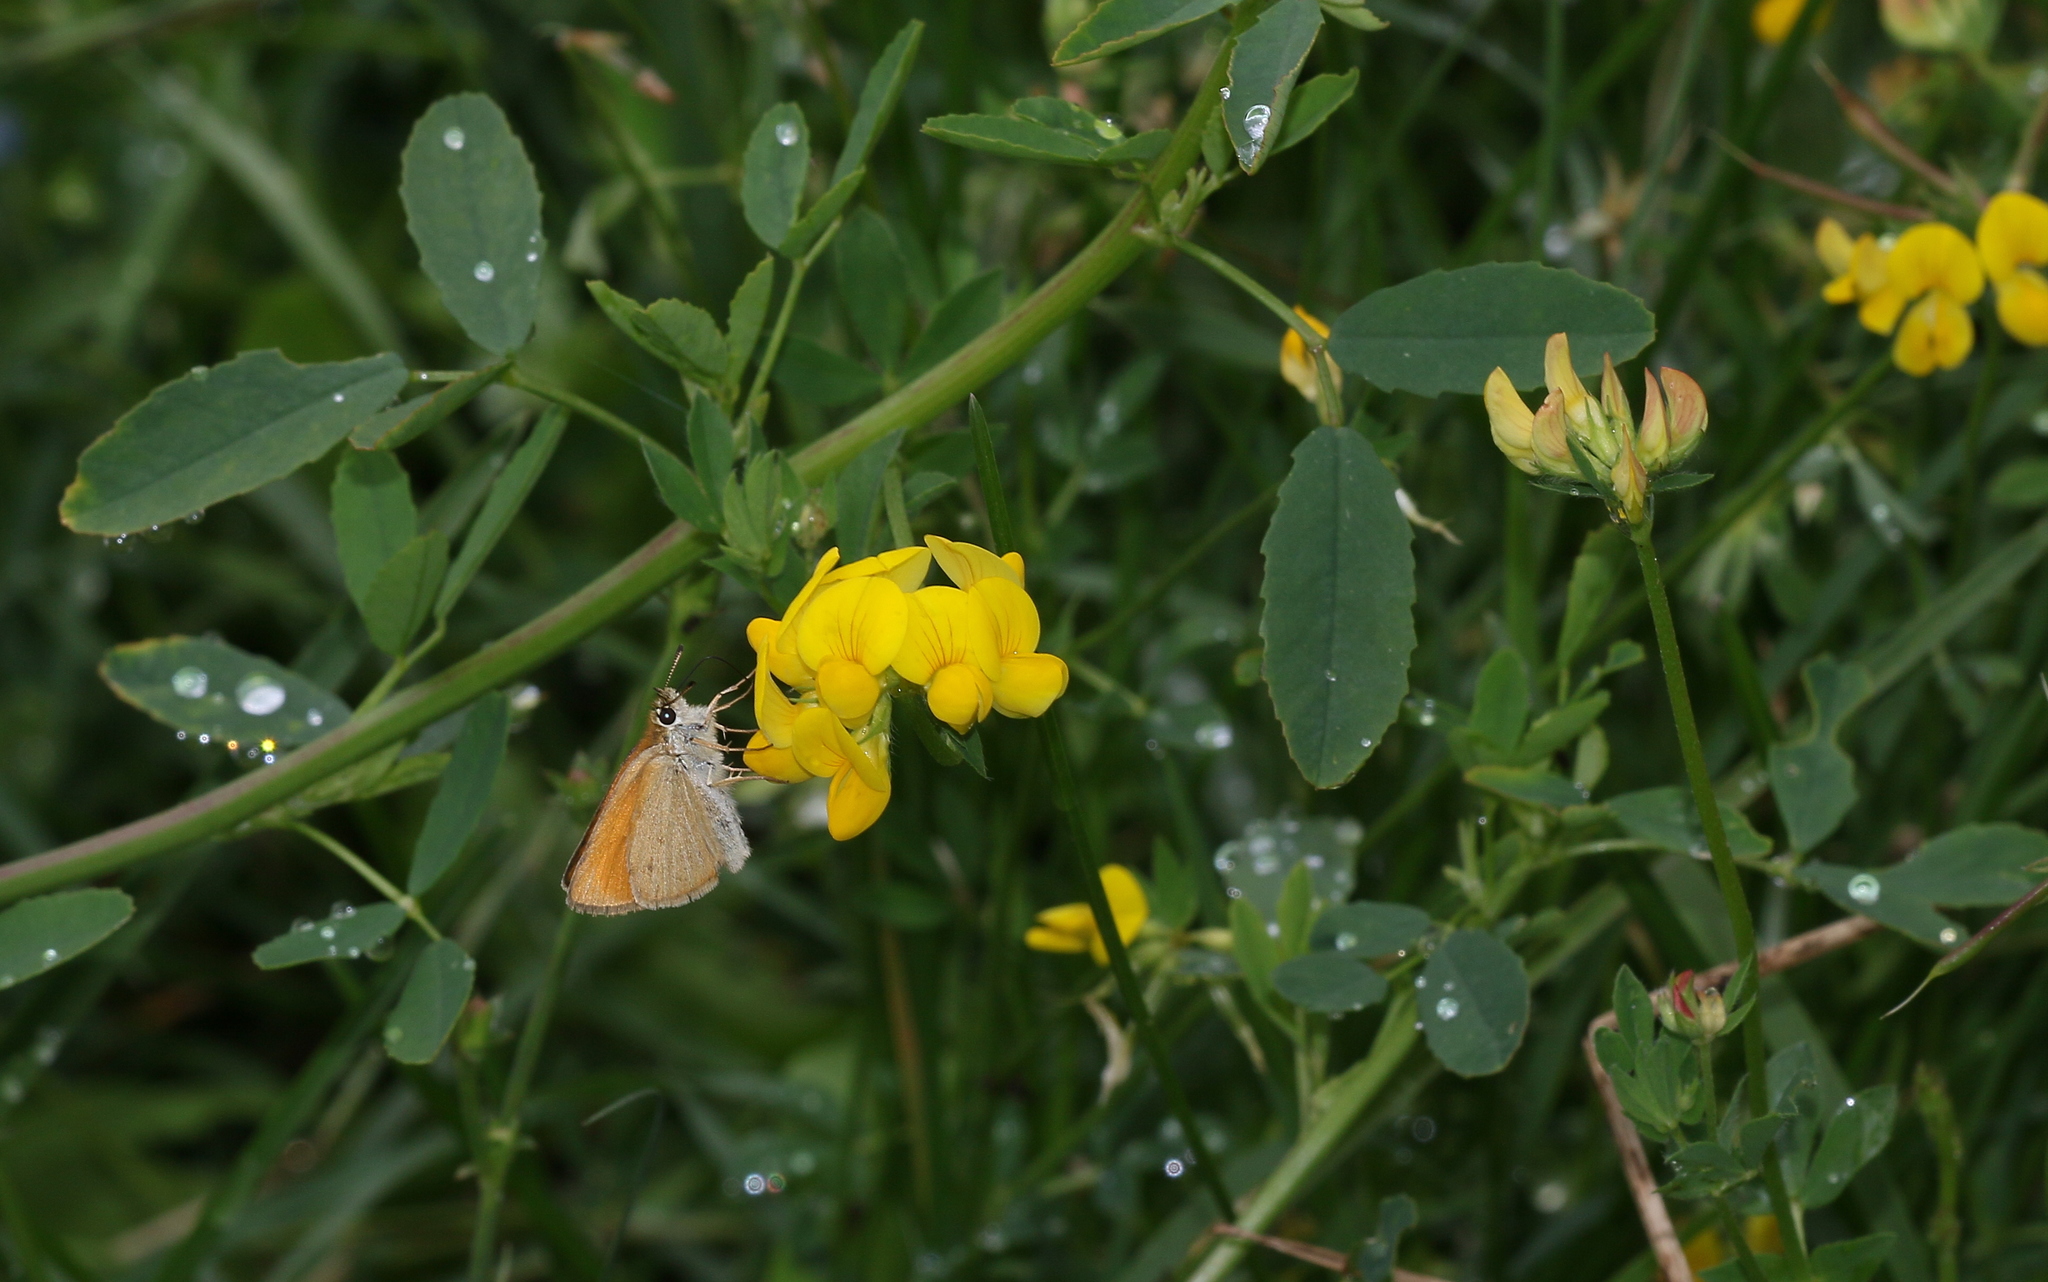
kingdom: Animalia
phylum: Arthropoda
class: Insecta
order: Lepidoptera
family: Hesperiidae
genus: Thymelicus
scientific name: Thymelicus lineola
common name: Essex skipper
